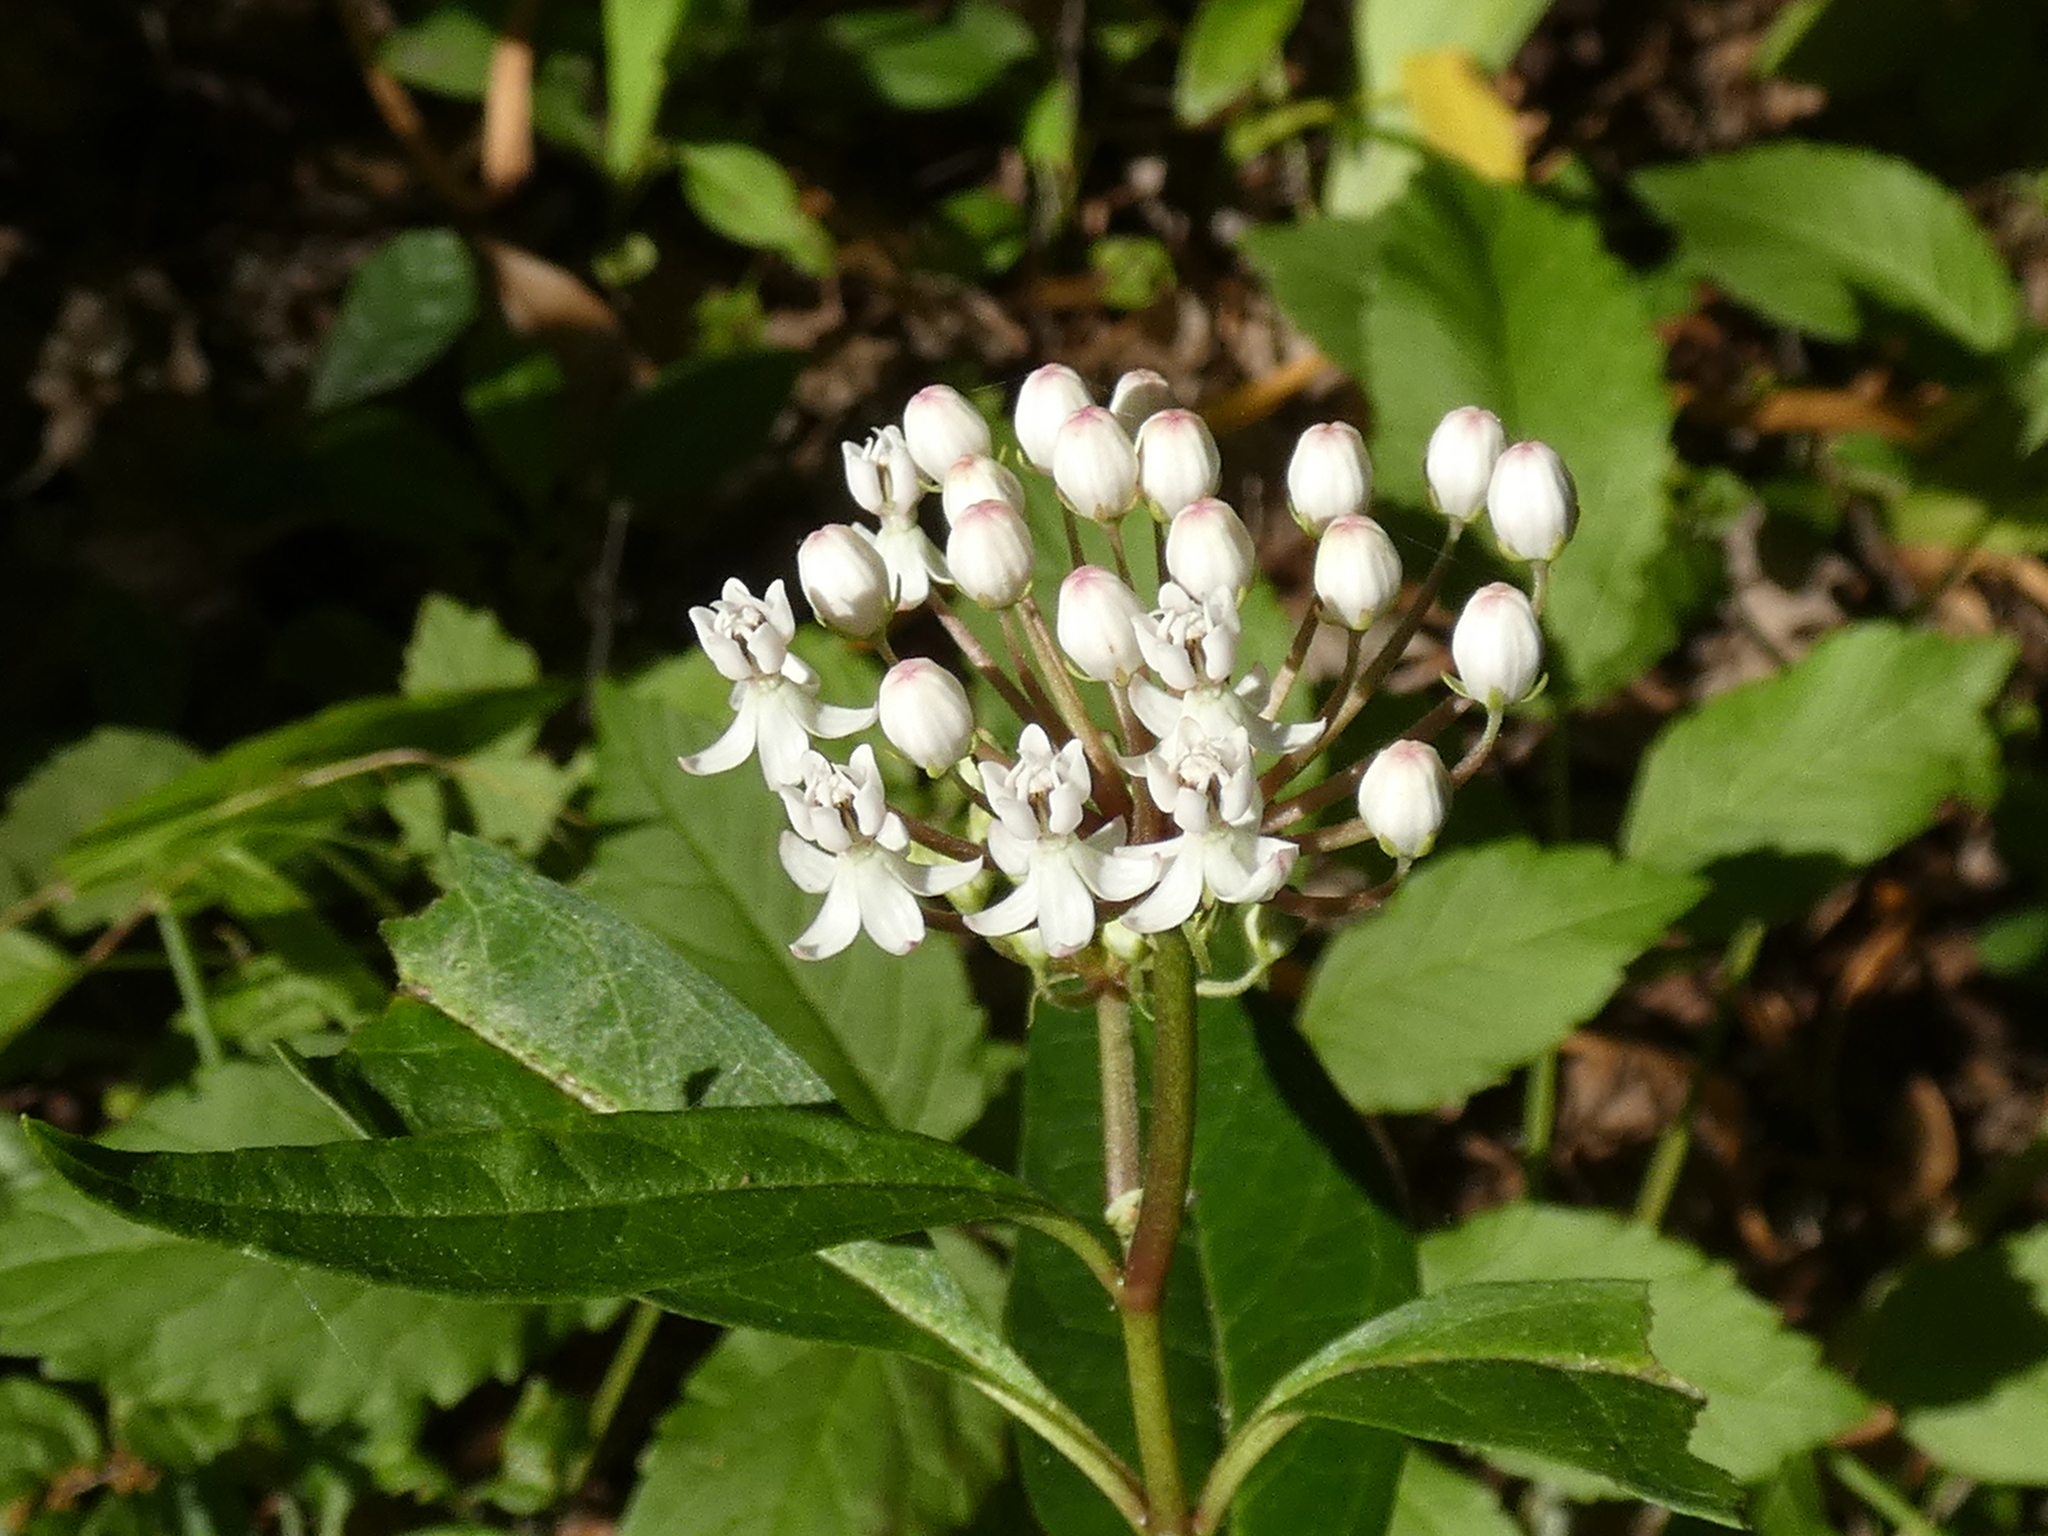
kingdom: Plantae
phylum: Tracheophyta
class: Magnoliopsida
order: Gentianales
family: Apocynaceae
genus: Asclepias
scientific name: Asclepias perennis
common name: Smooth-seed milkweed
